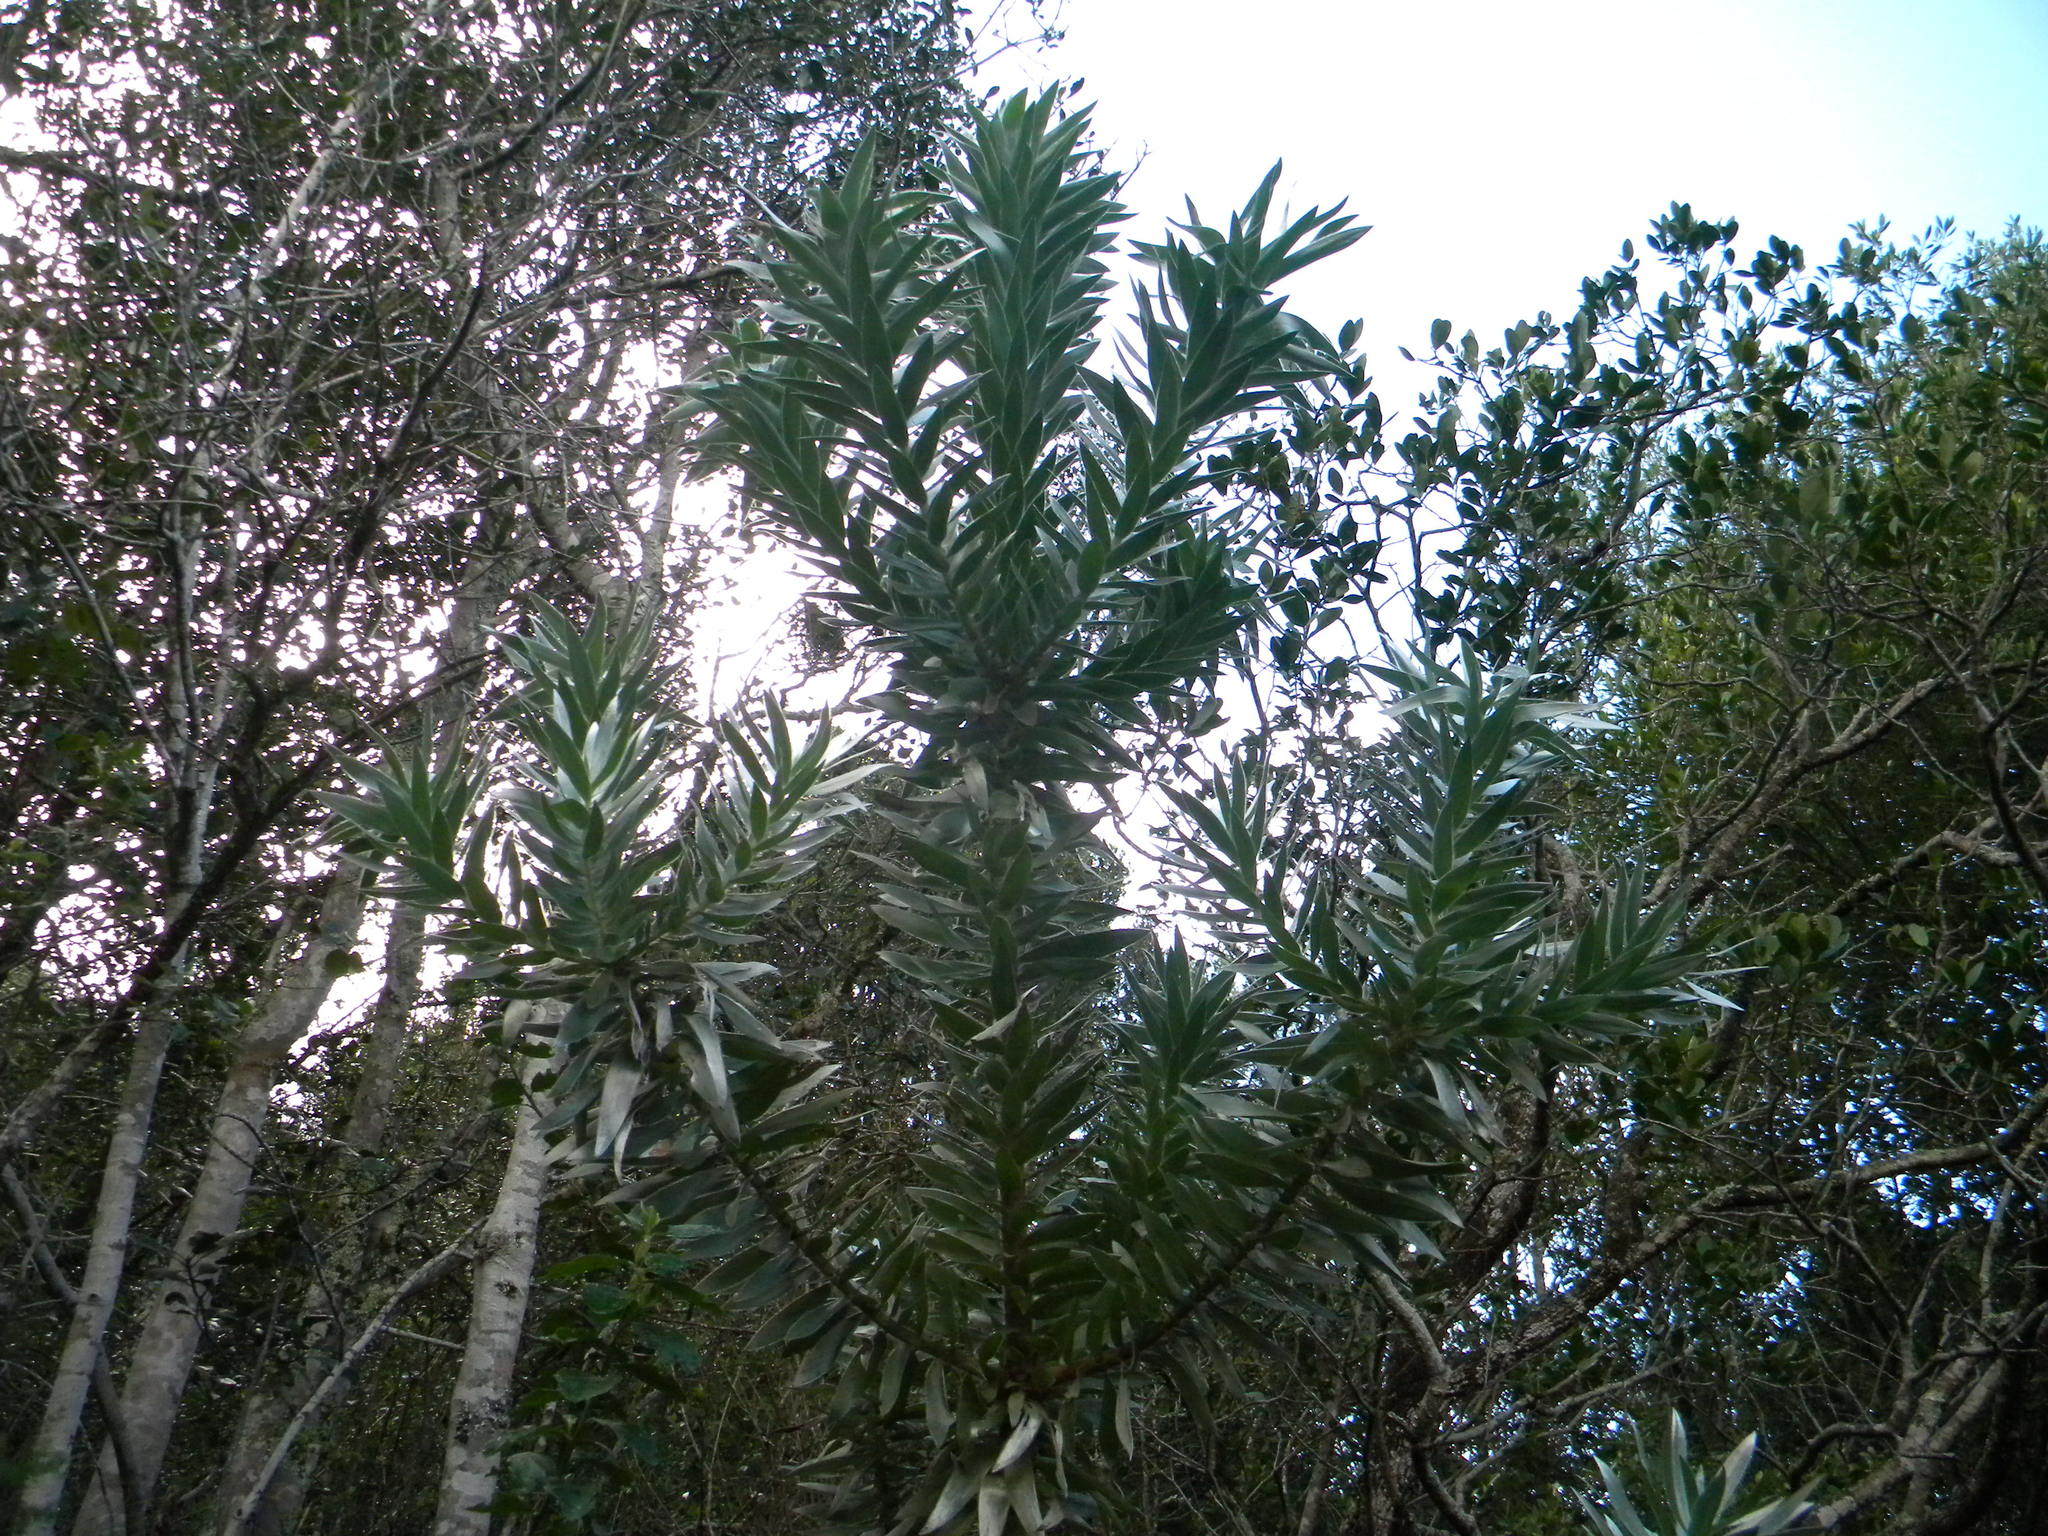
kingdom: Plantae
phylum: Tracheophyta
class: Magnoliopsida
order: Proteales
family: Proteaceae
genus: Leucadendron
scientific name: Leucadendron argenteum
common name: Cape silver tree
